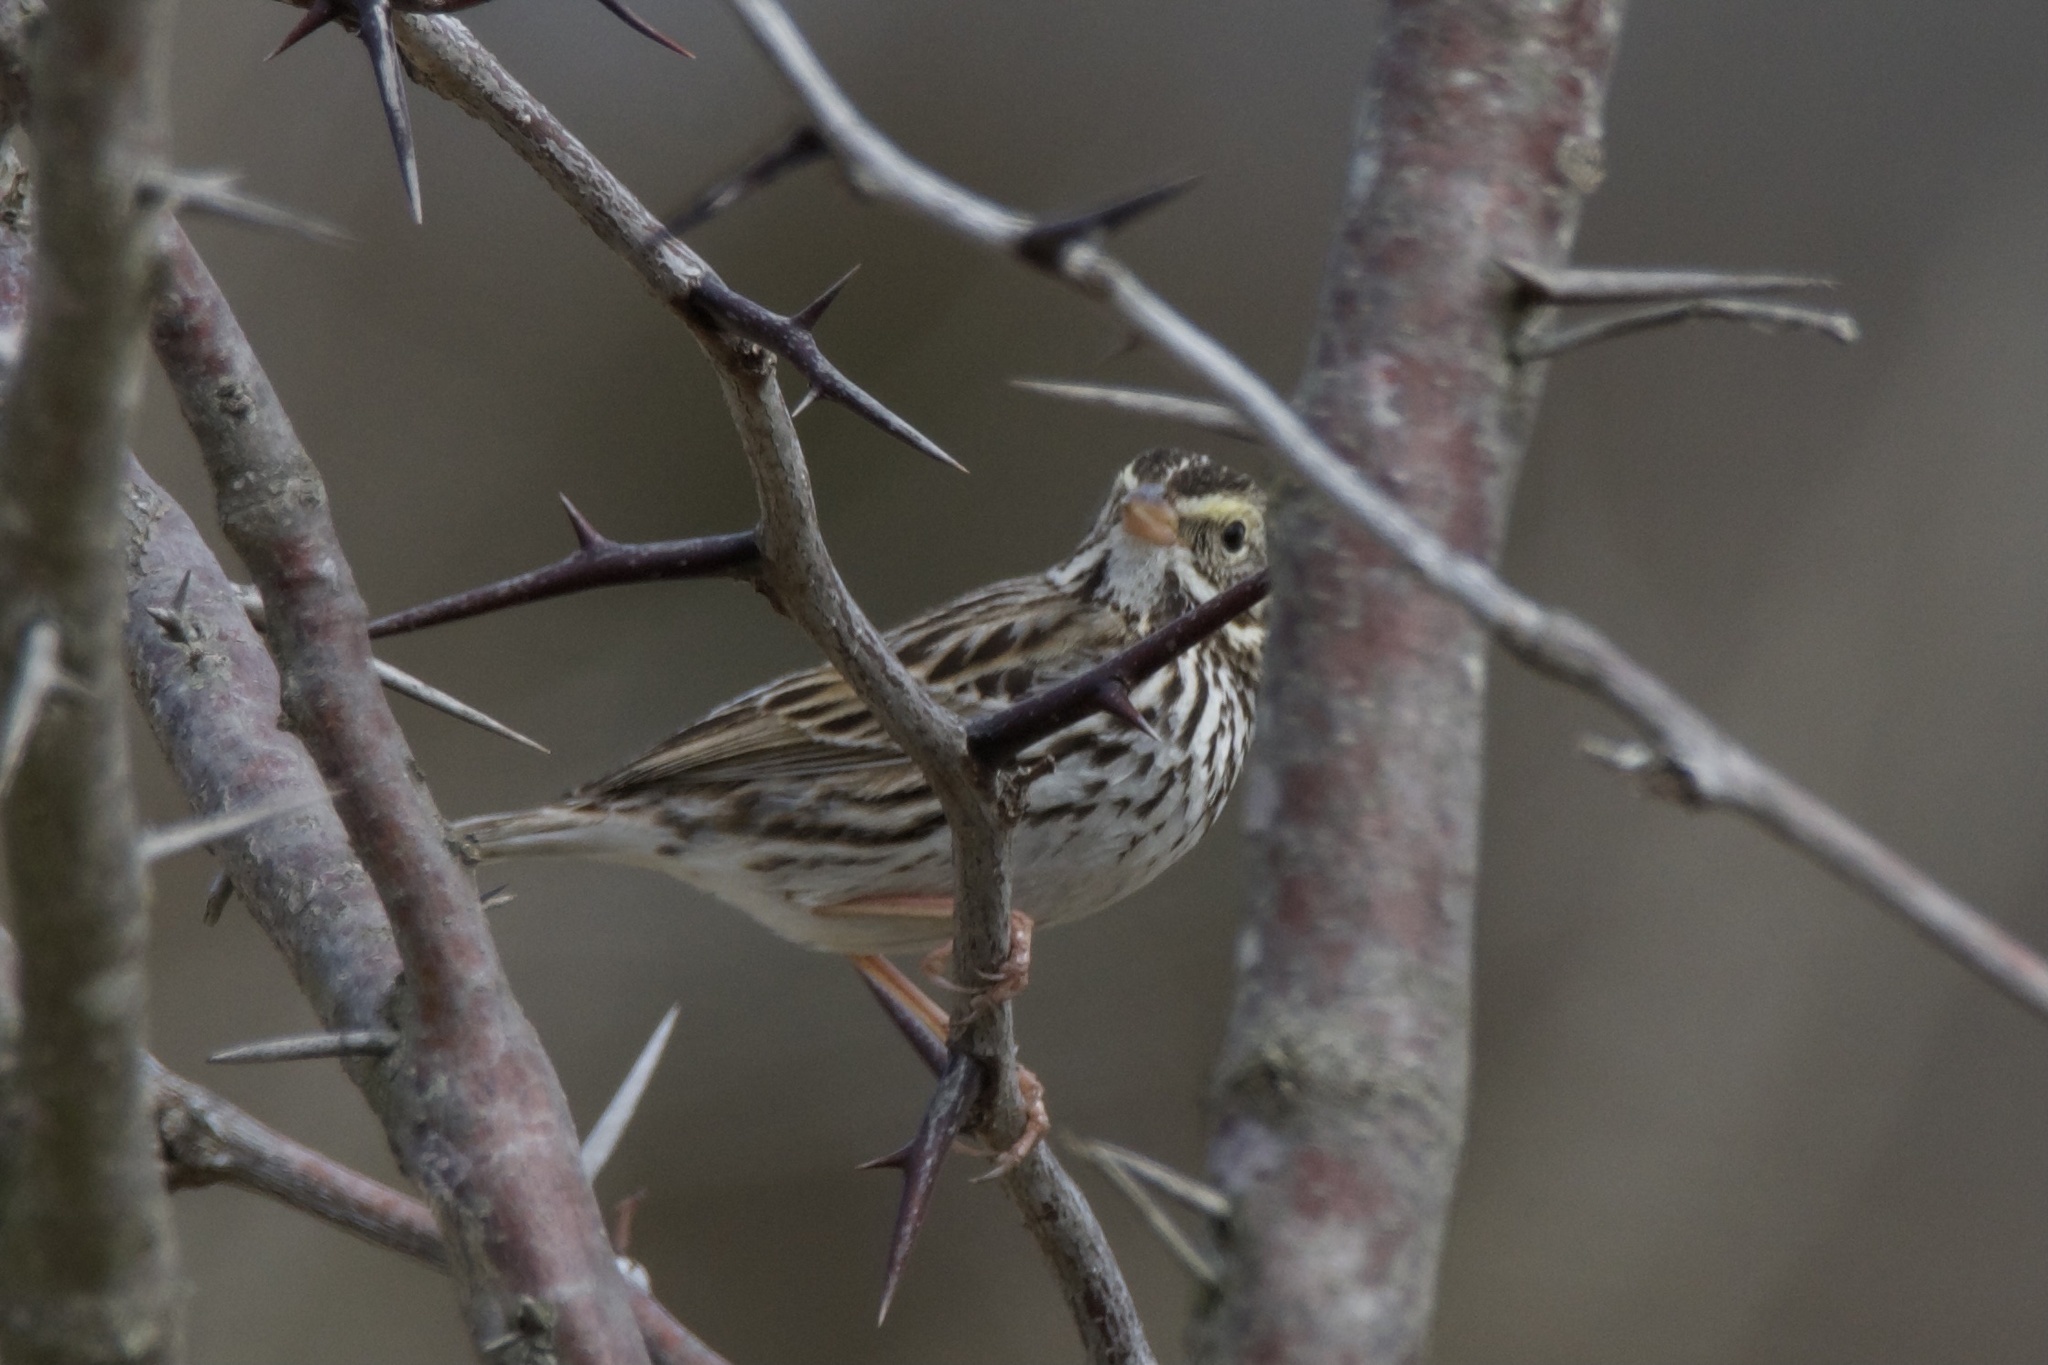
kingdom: Animalia
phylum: Chordata
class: Aves
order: Passeriformes
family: Passerellidae
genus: Passerculus
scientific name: Passerculus sandwichensis
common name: Savannah sparrow
